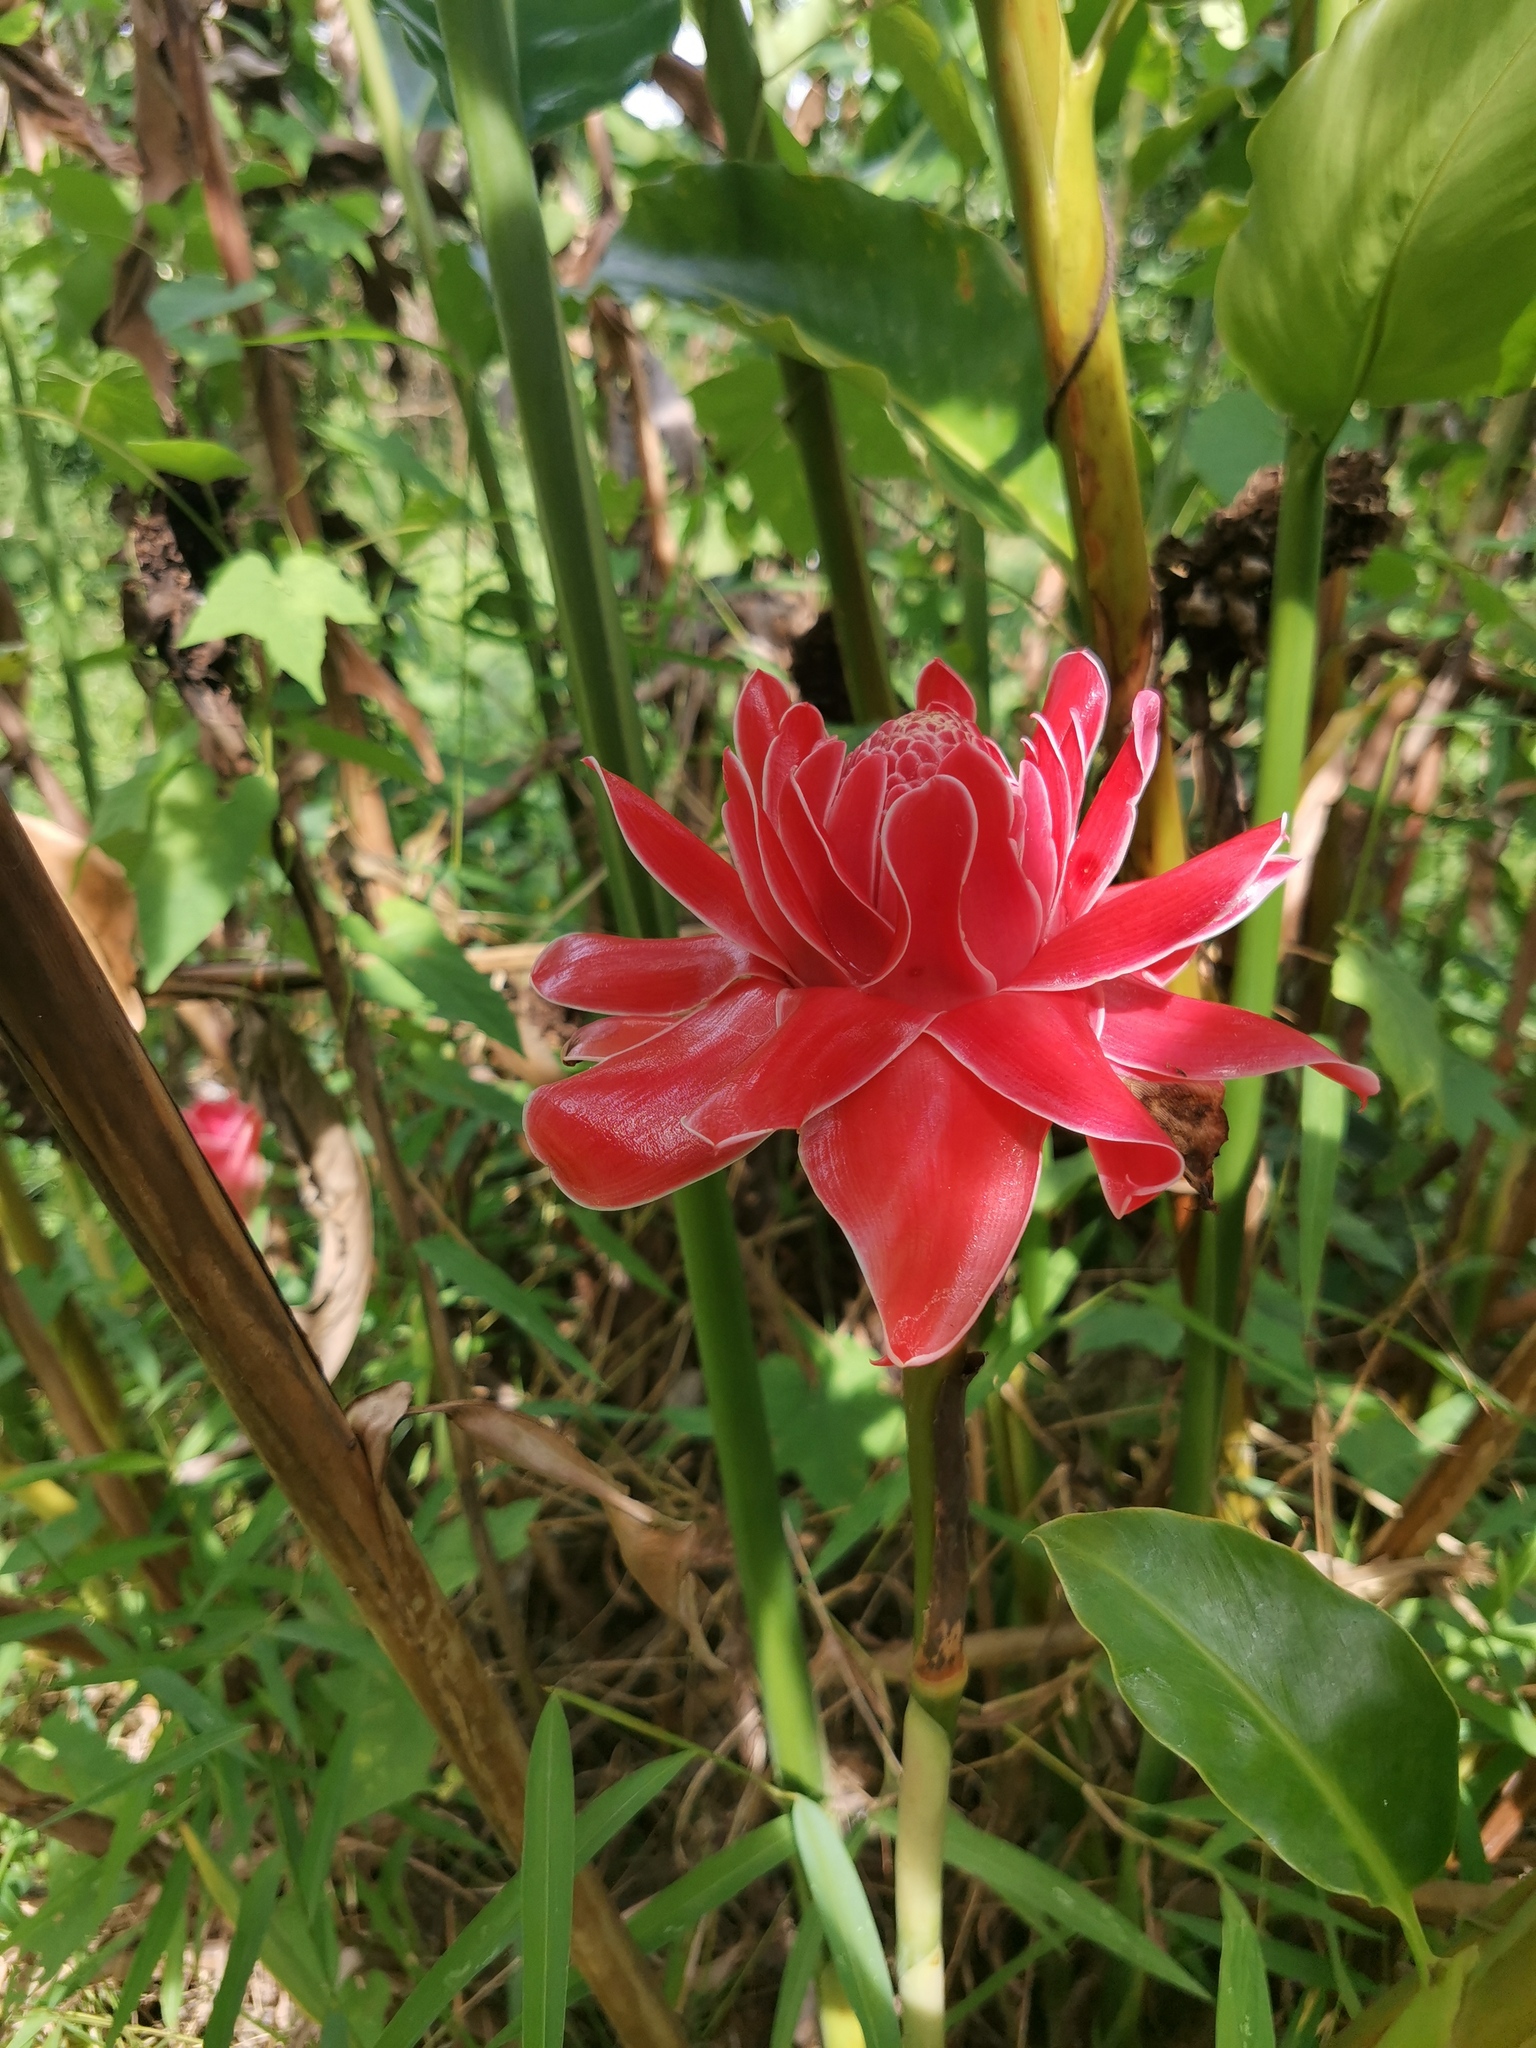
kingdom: Plantae
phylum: Tracheophyta
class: Liliopsida
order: Zingiberales
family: Zingiberaceae
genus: Etlingera
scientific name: Etlingera elatior
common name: Philippine waxflower
